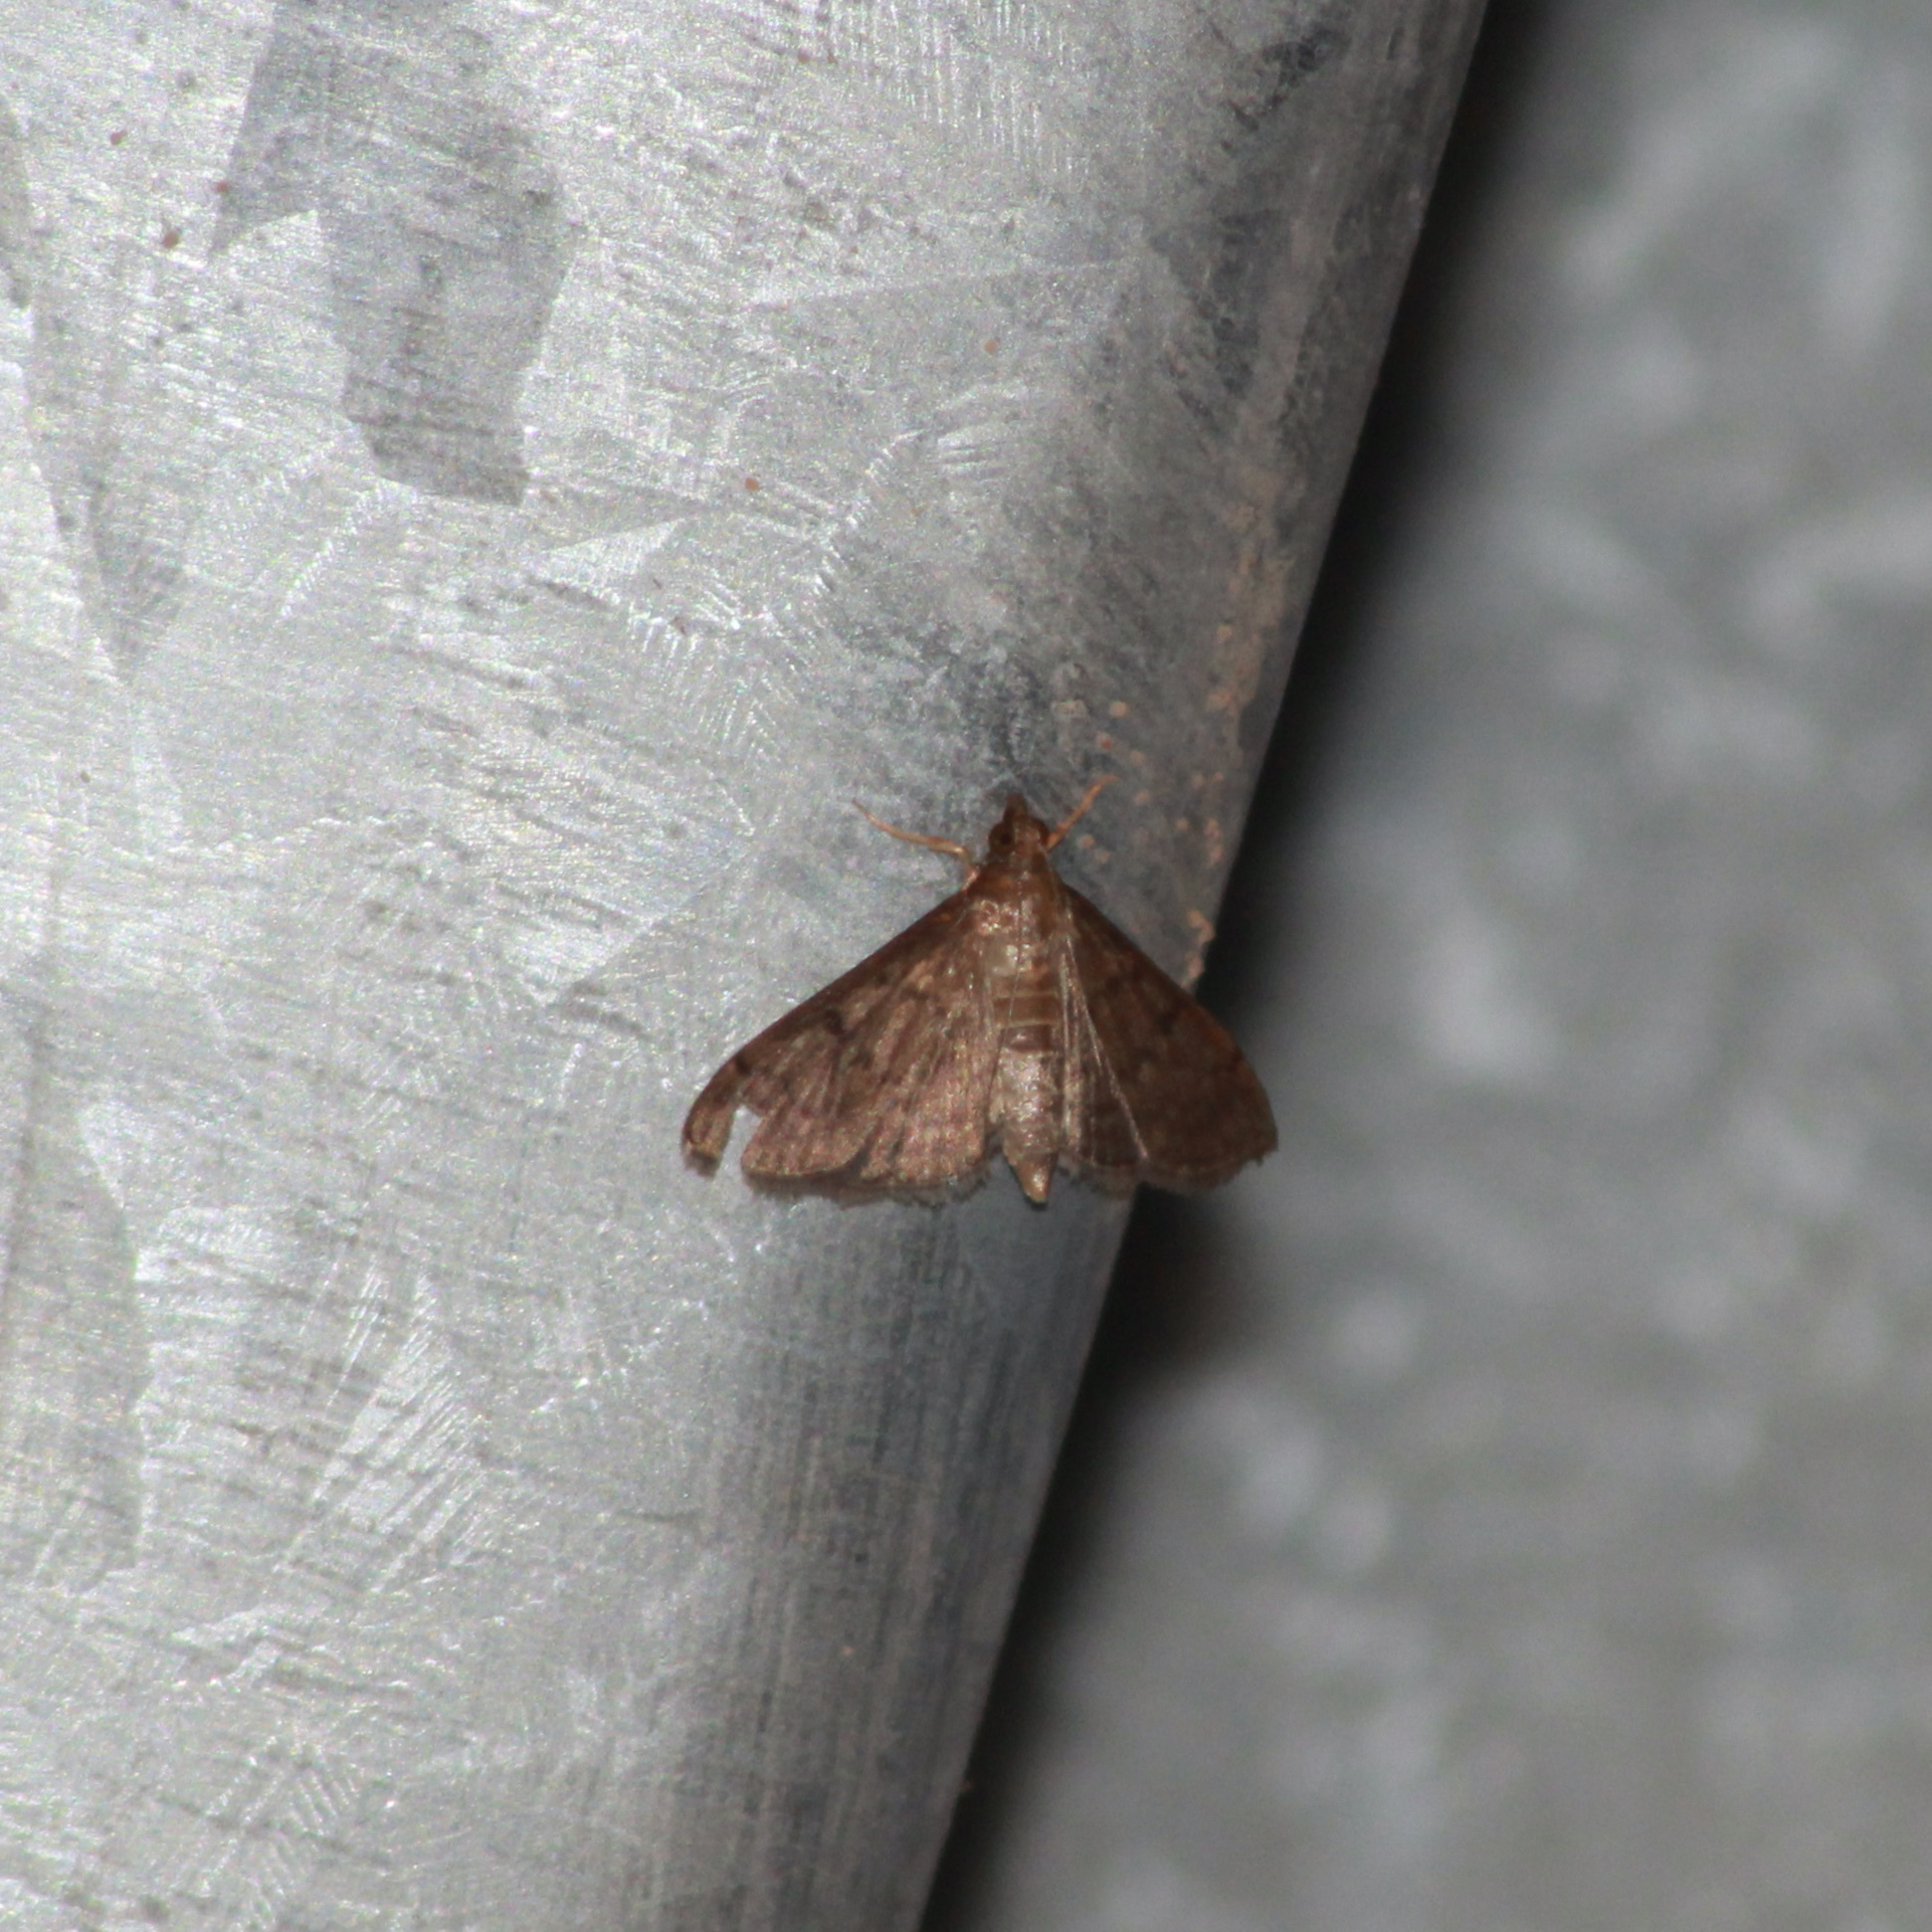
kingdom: Animalia
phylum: Arthropoda
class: Insecta
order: Lepidoptera
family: Crambidae
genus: Herpetogramma
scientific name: Herpetogramma phaeopteralis
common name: Dusky herpetogramma moth
